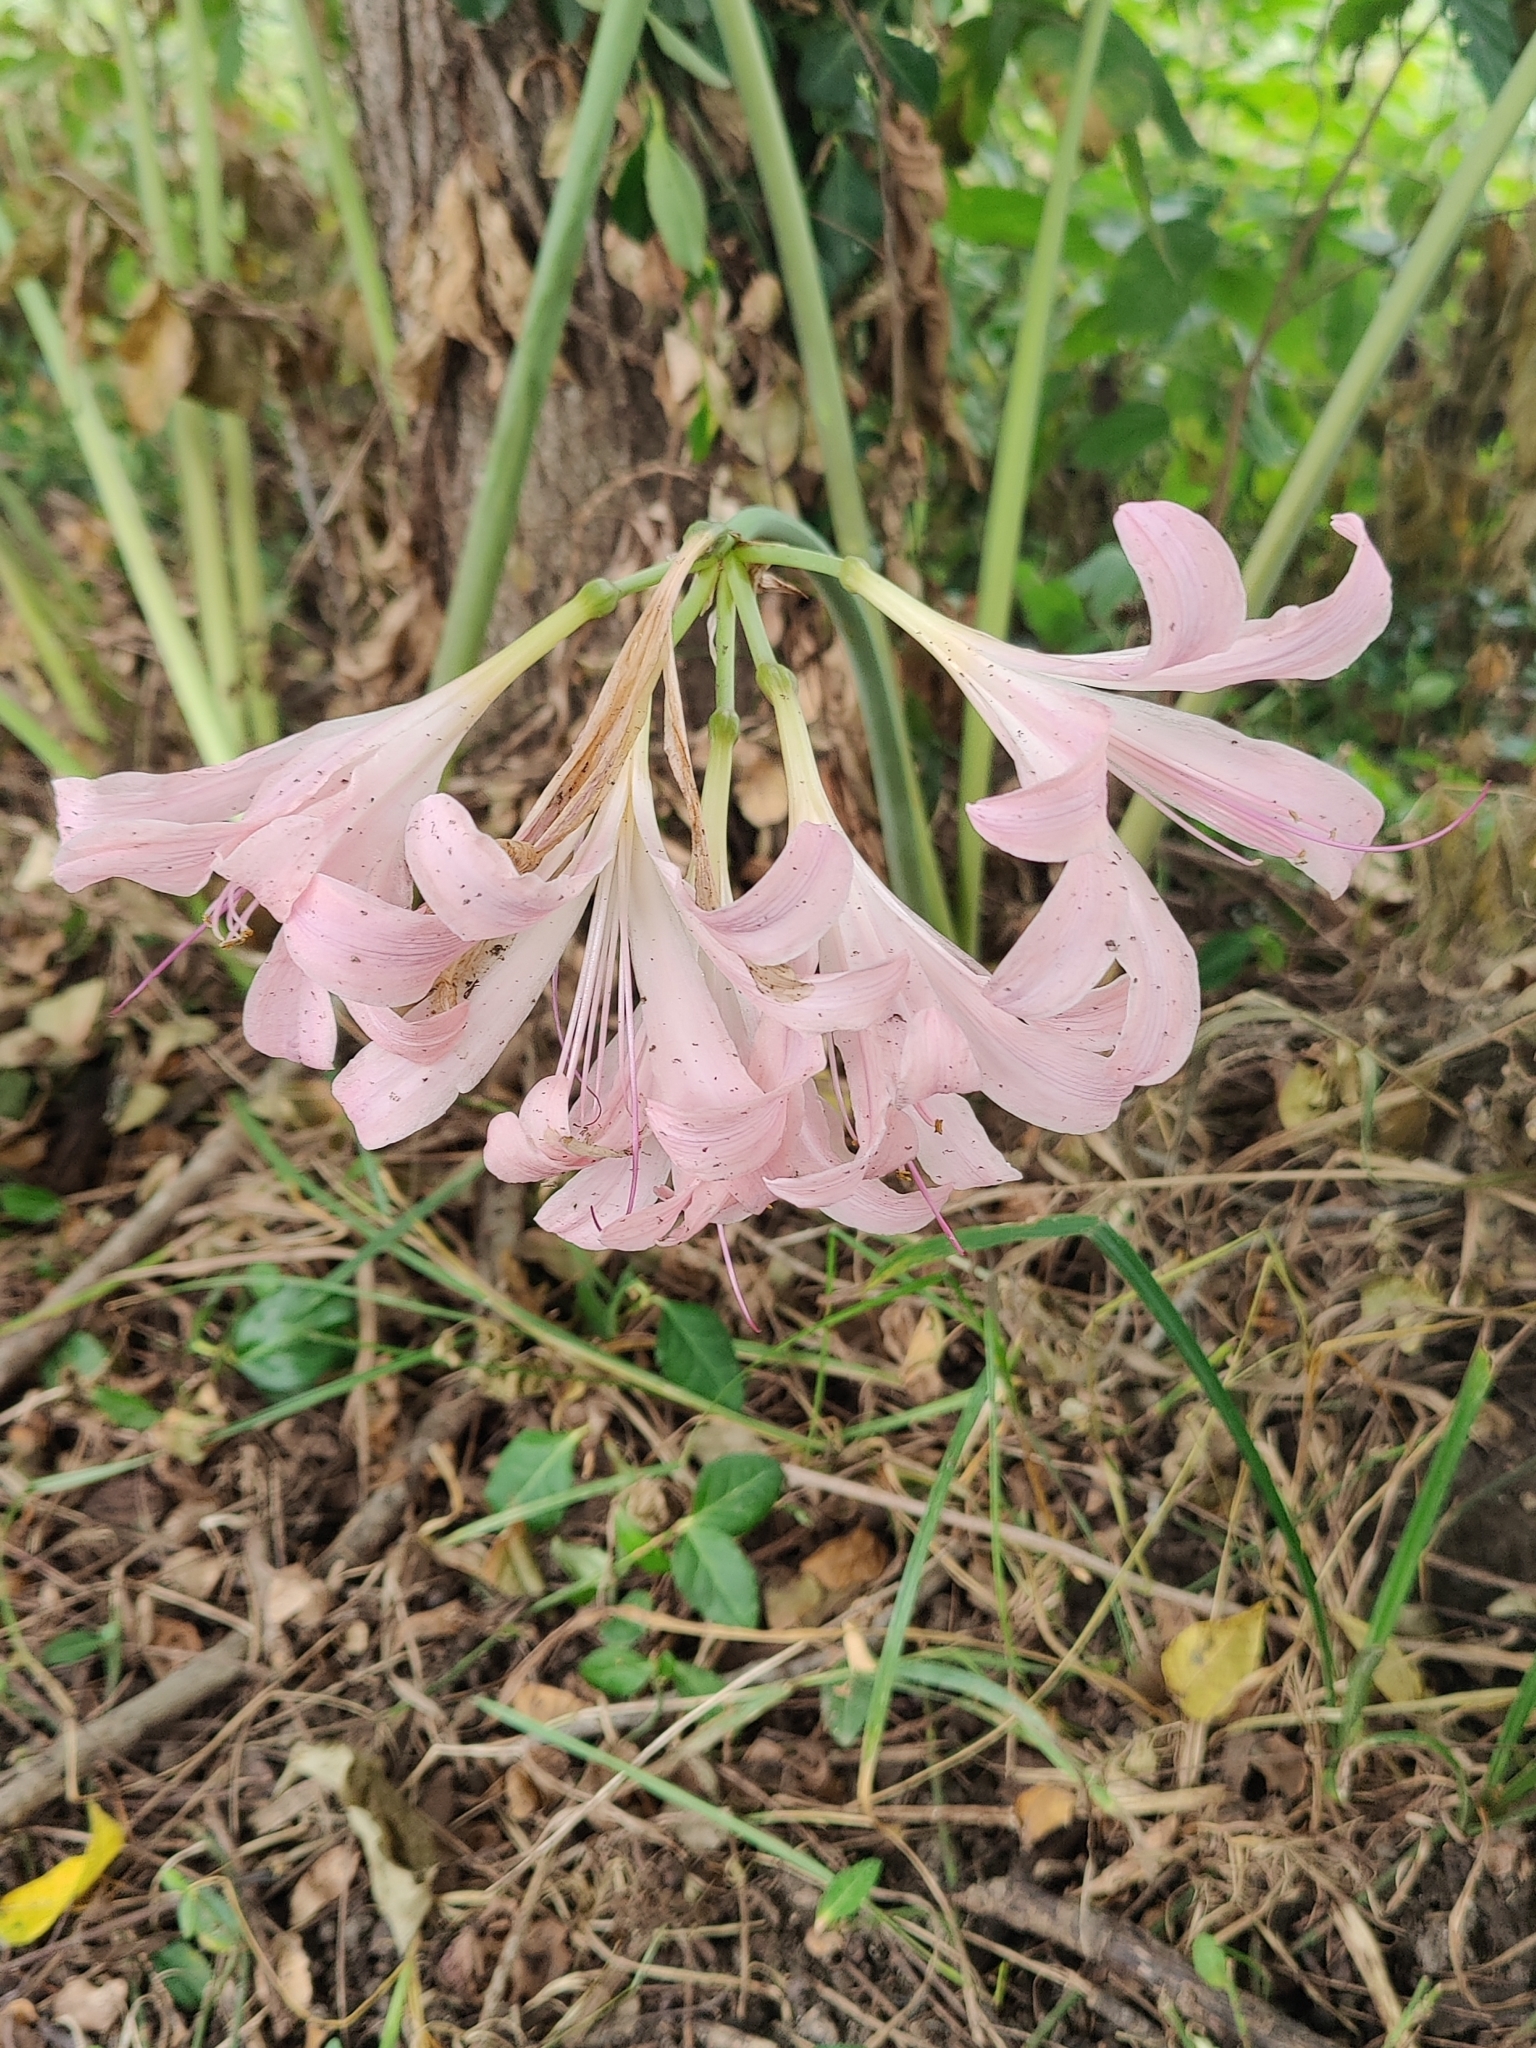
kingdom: Plantae
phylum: Tracheophyta
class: Liliopsida
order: Asparagales
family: Amaryllidaceae
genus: Lycoris
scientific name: Lycoris squamigera
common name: Magic-lily
